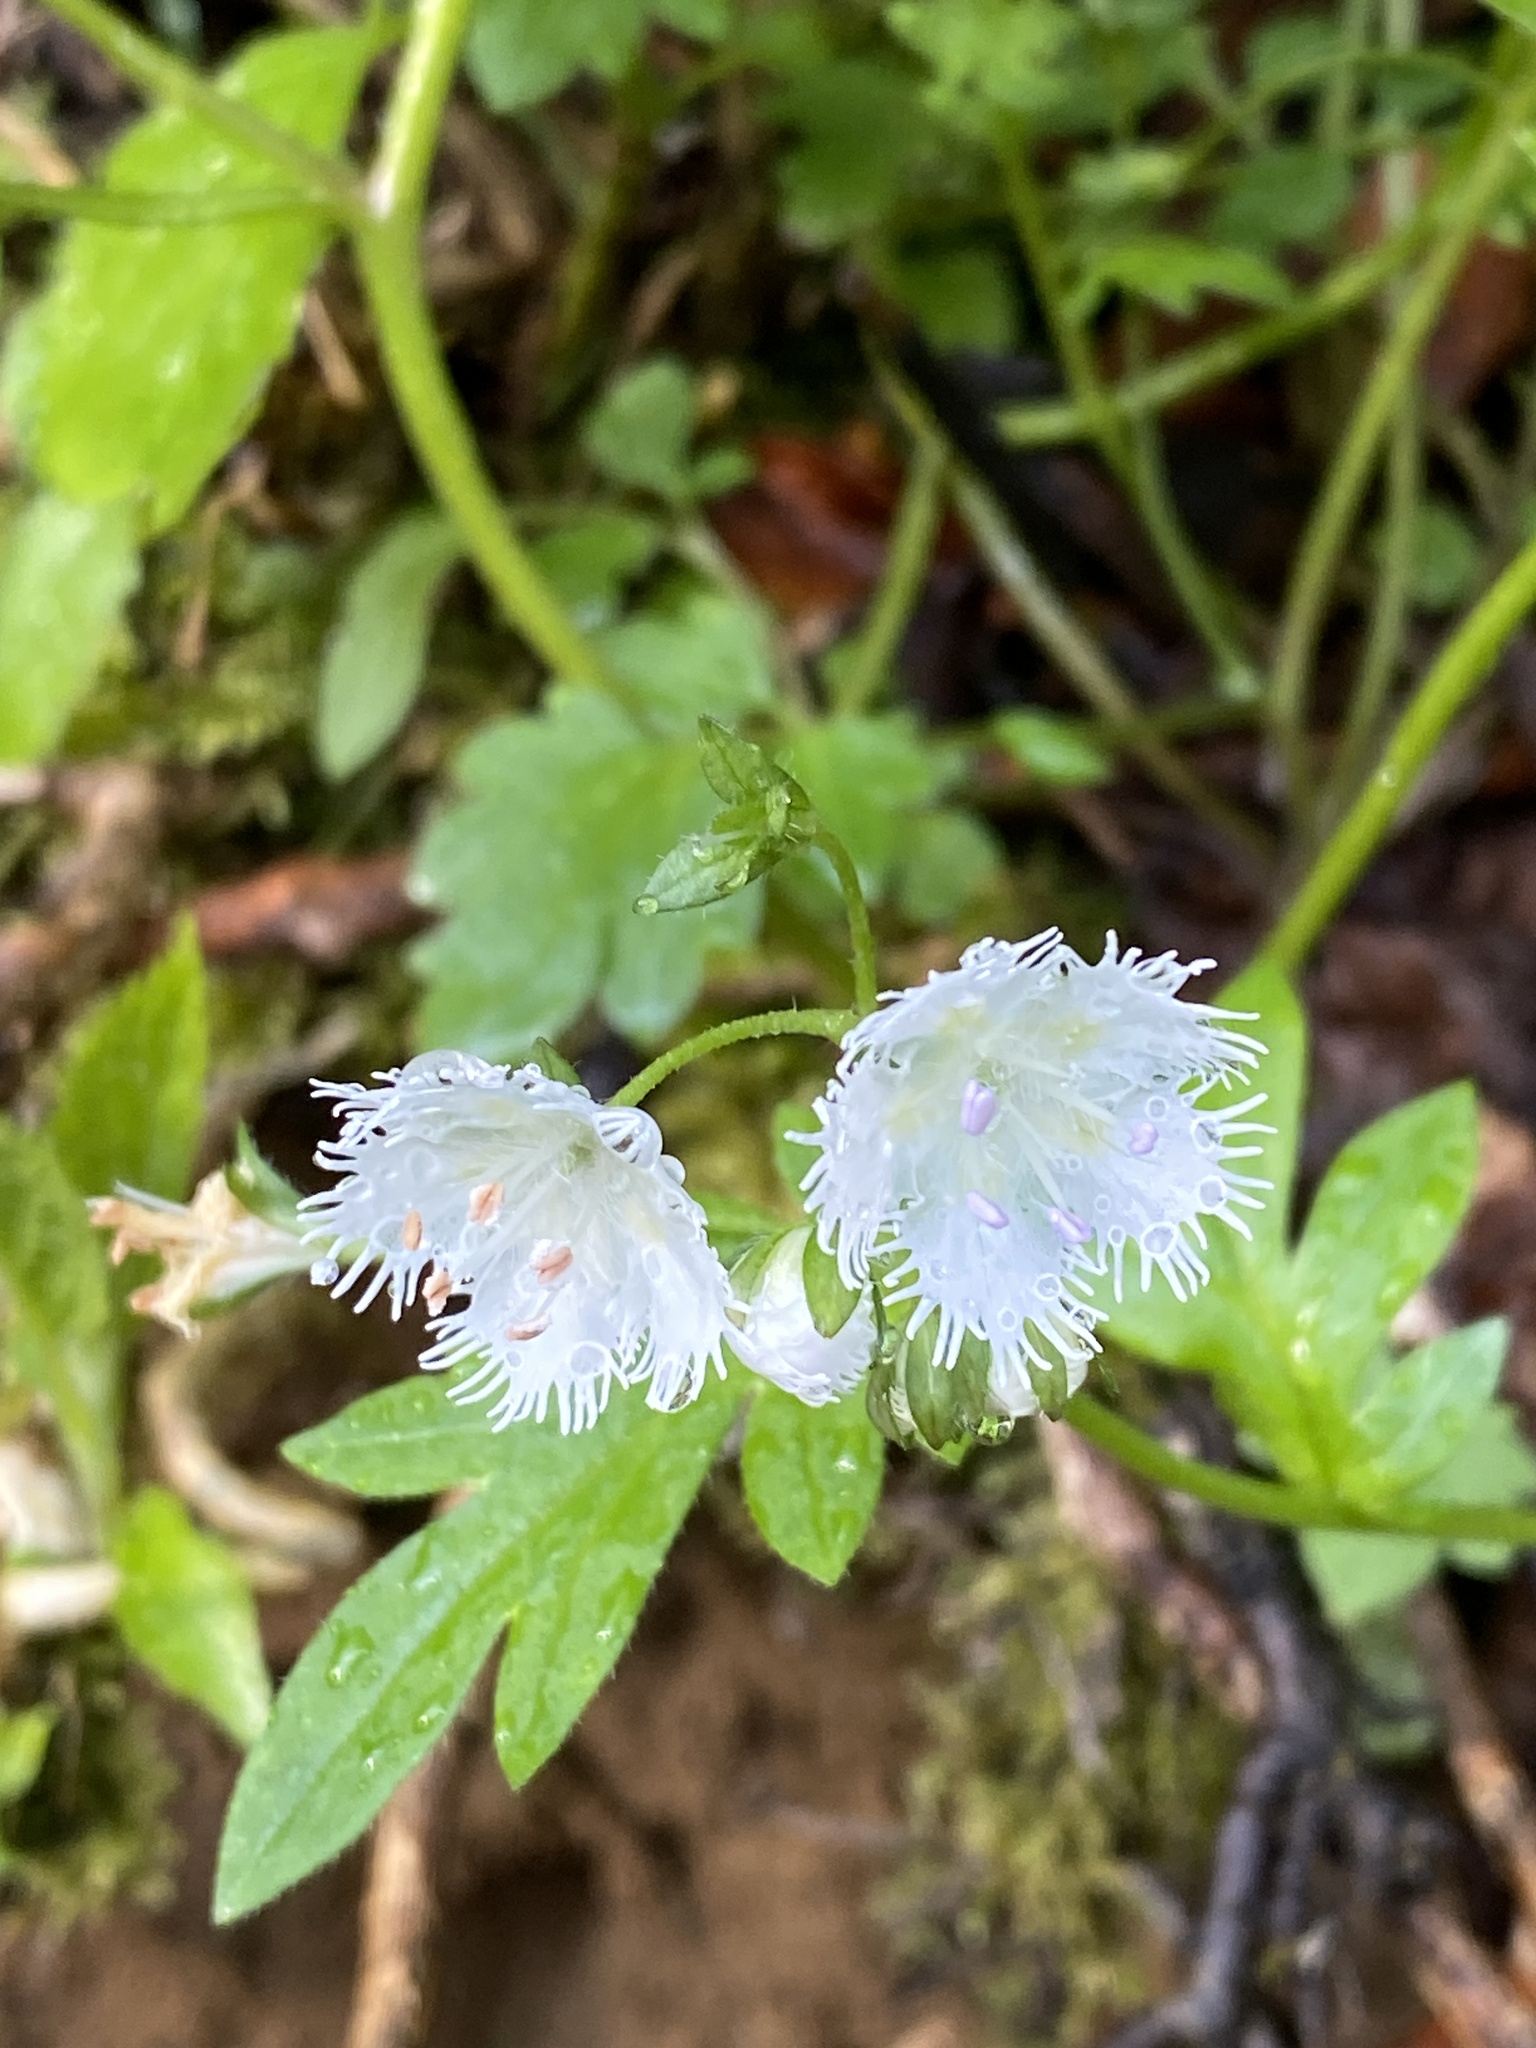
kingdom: Plantae
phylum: Tracheophyta
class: Magnoliopsida
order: Boraginales
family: Hydrophyllaceae
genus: Phacelia
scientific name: Phacelia fimbriata
